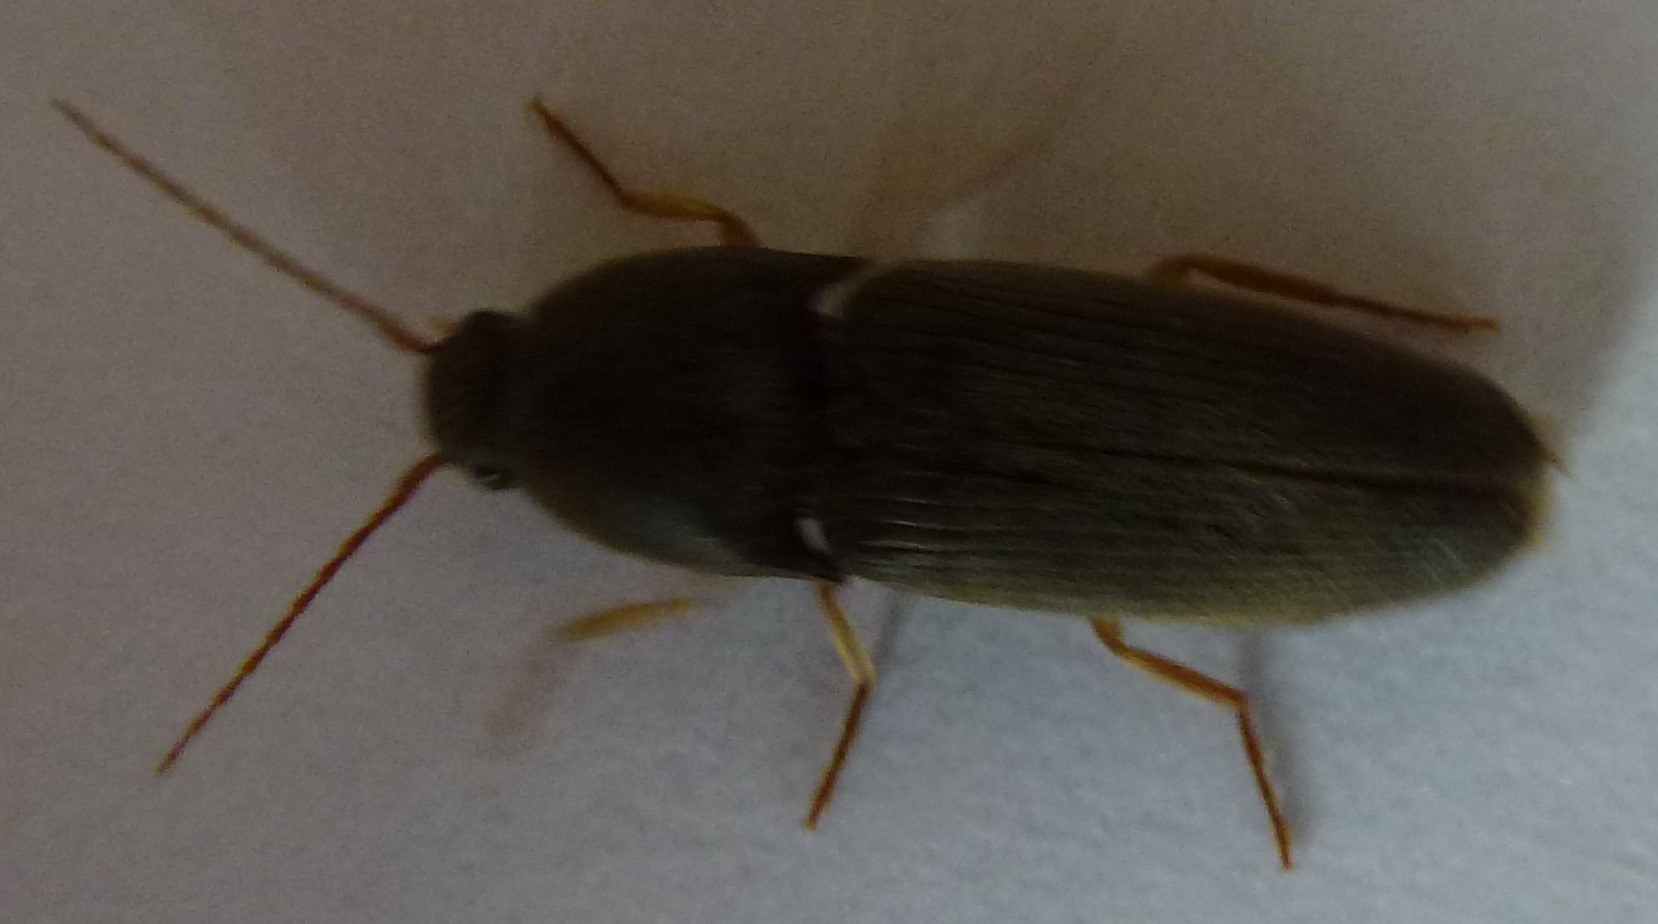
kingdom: Animalia
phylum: Arthropoda
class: Insecta
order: Coleoptera
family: Elateridae
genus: Conoderus
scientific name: Conoderus exsul
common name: Click beetle
